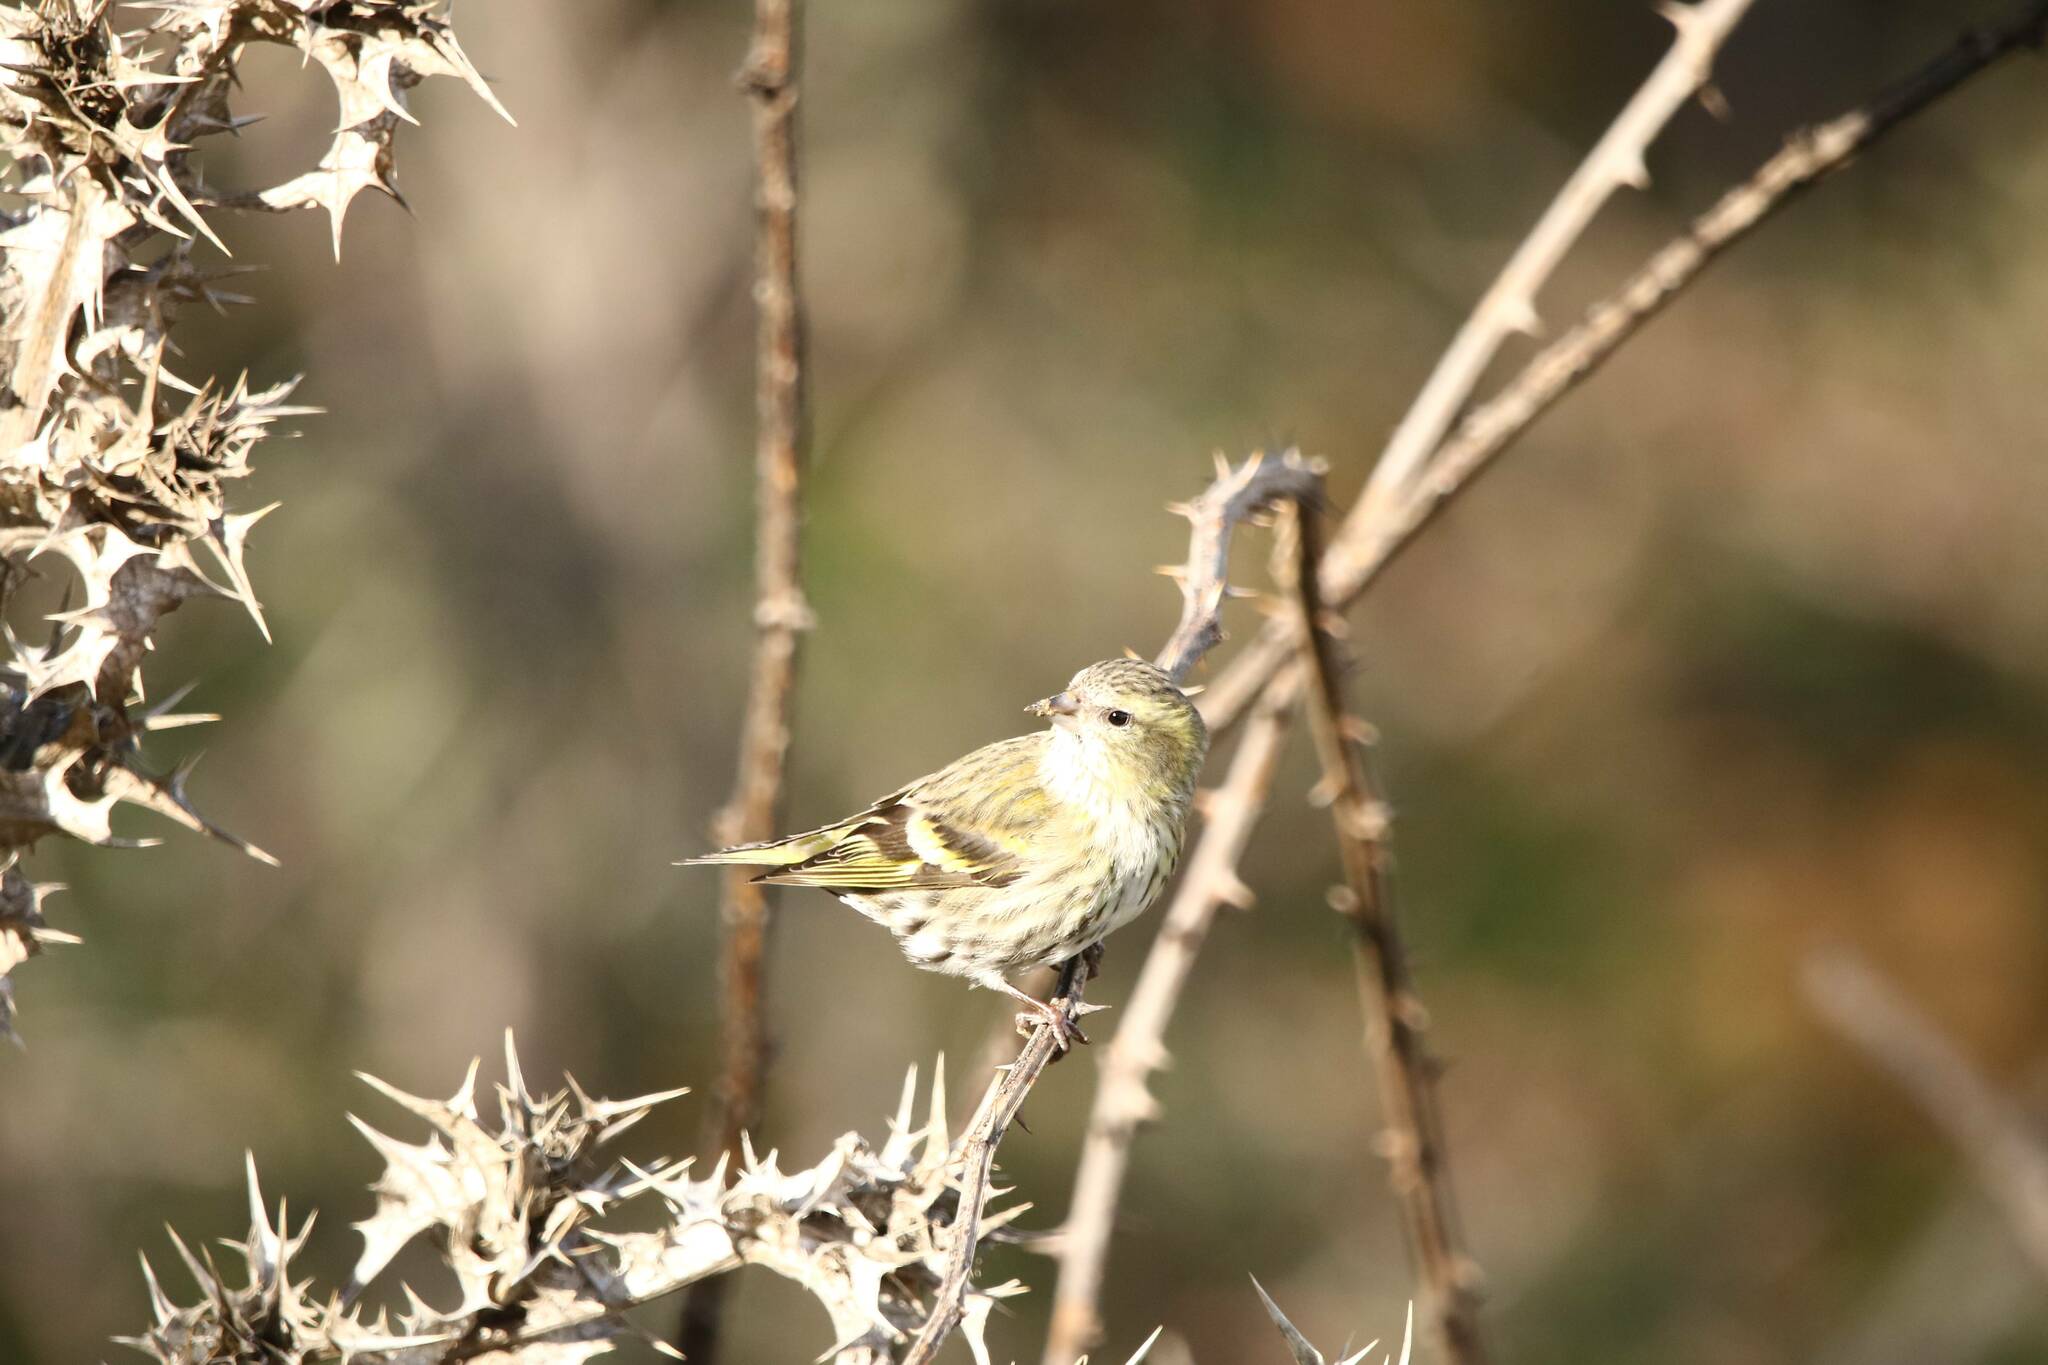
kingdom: Animalia
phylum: Chordata
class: Aves
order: Passeriformes
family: Fringillidae
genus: Spinus
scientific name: Spinus spinus
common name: Eurasian siskin
